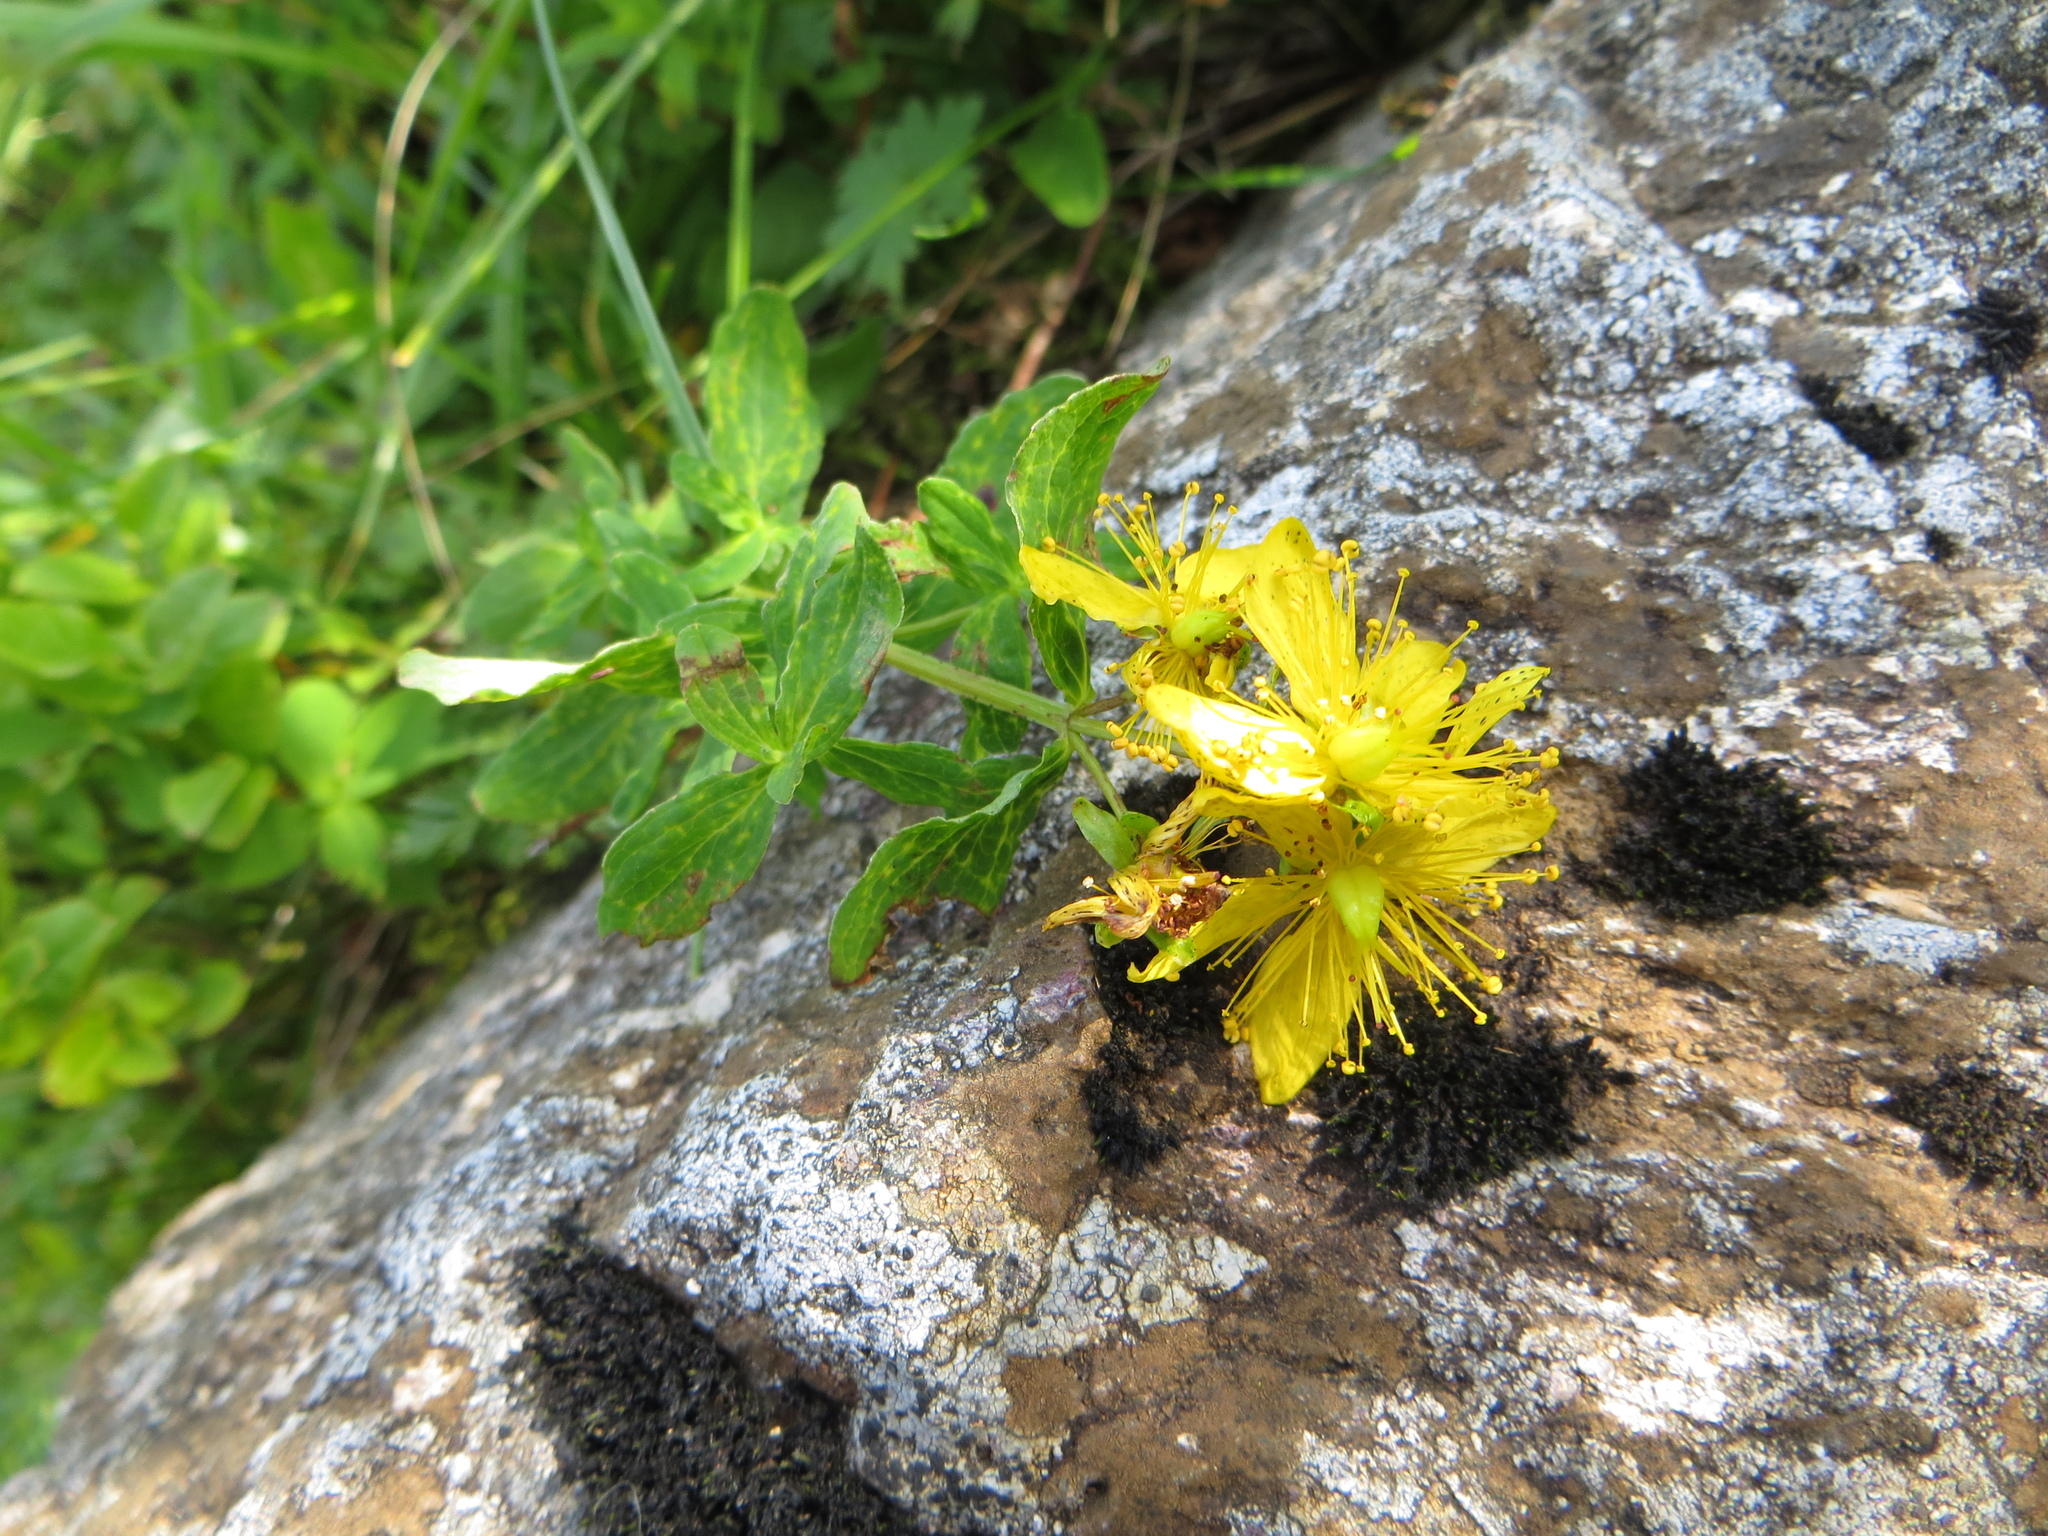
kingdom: Plantae
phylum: Tracheophyta
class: Magnoliopsida
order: Malpighiales
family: Hypericaceae
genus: Hypericum
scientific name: Hypericum perforatum
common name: Common st. johnswort
